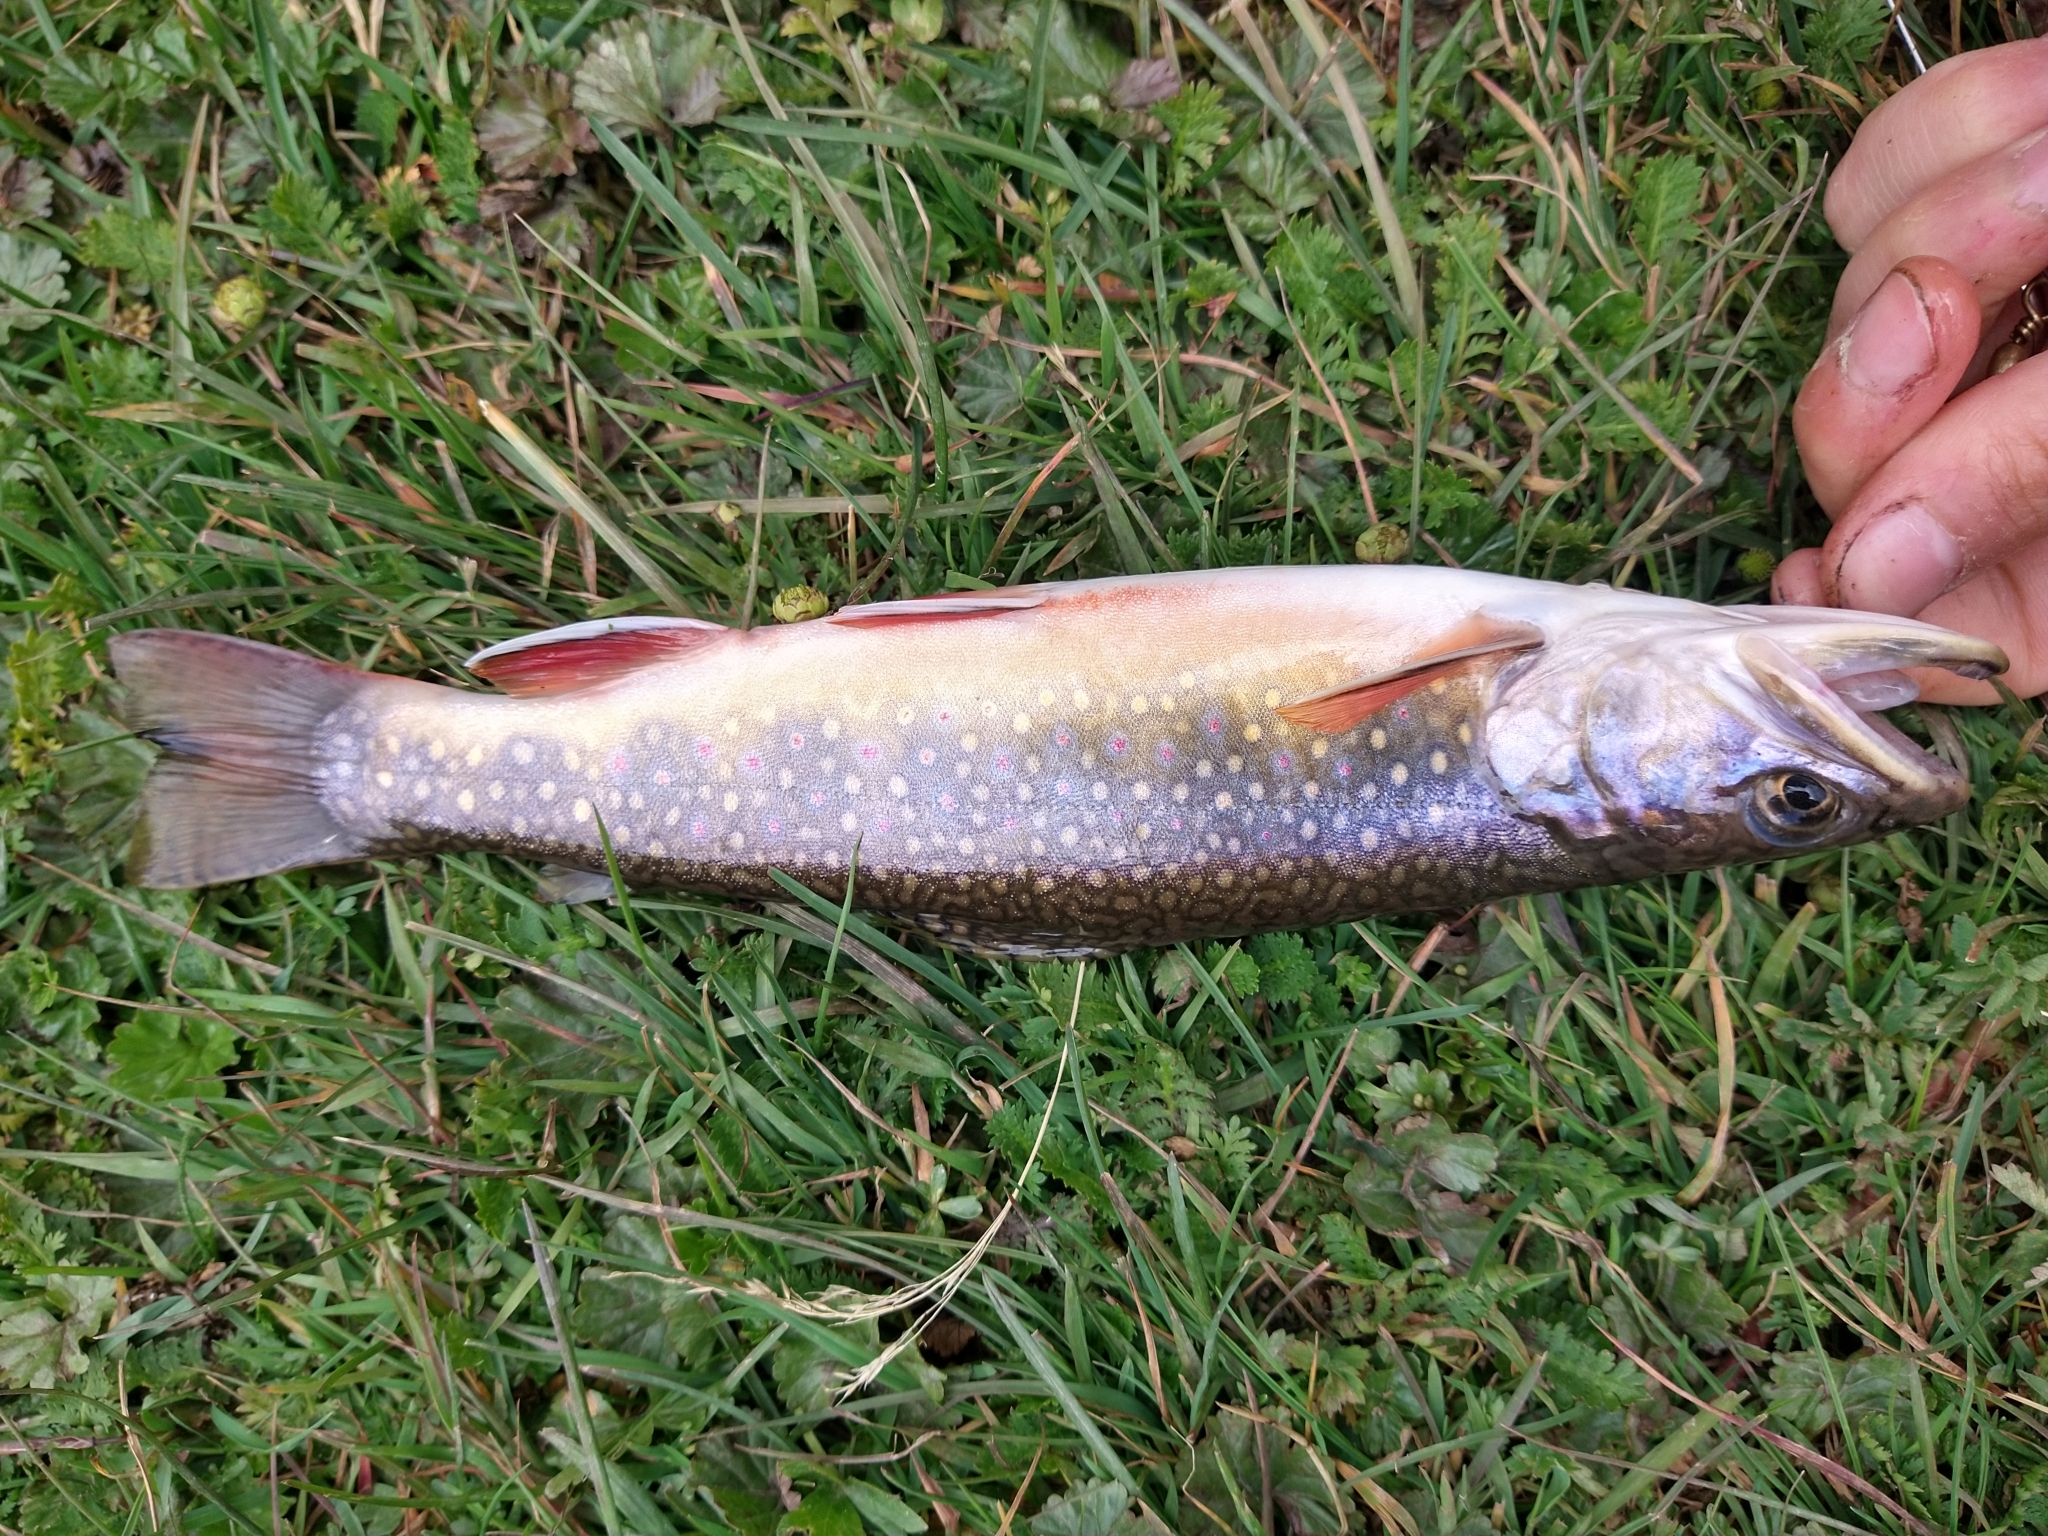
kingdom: Animalia
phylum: Chordata
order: Salmoniformes
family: Salmonidae
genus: Salvelinus
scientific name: Salvelinus fontinalis
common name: Brook trout
